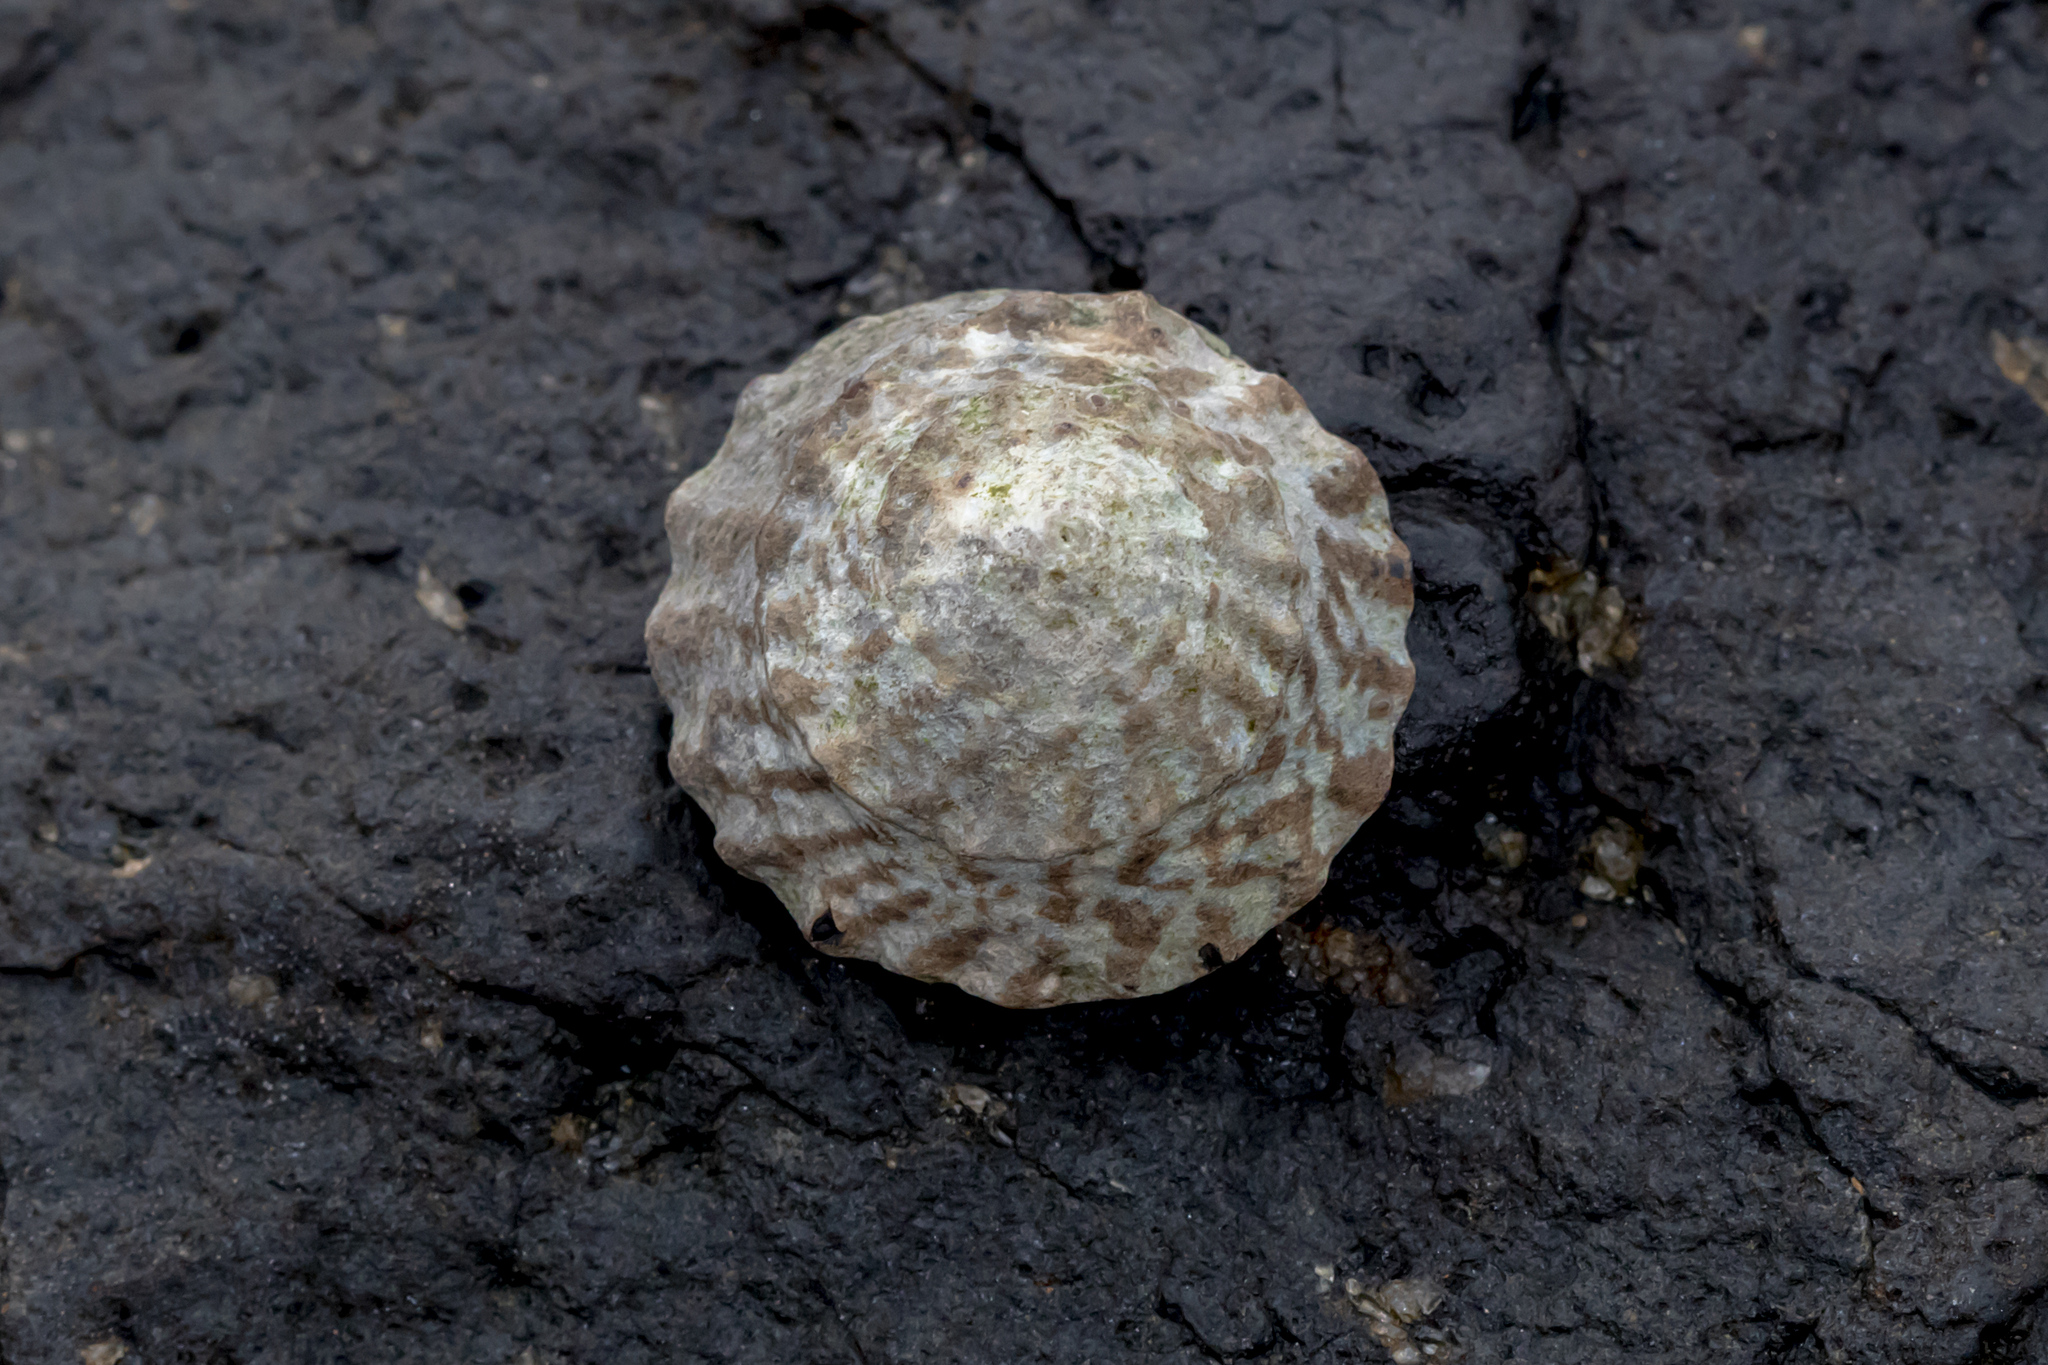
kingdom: Animalia
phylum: Mollusca
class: Gastropoda
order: Littorinimorpha
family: Littorinidae
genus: Bembicium
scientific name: Bembicium auratum
